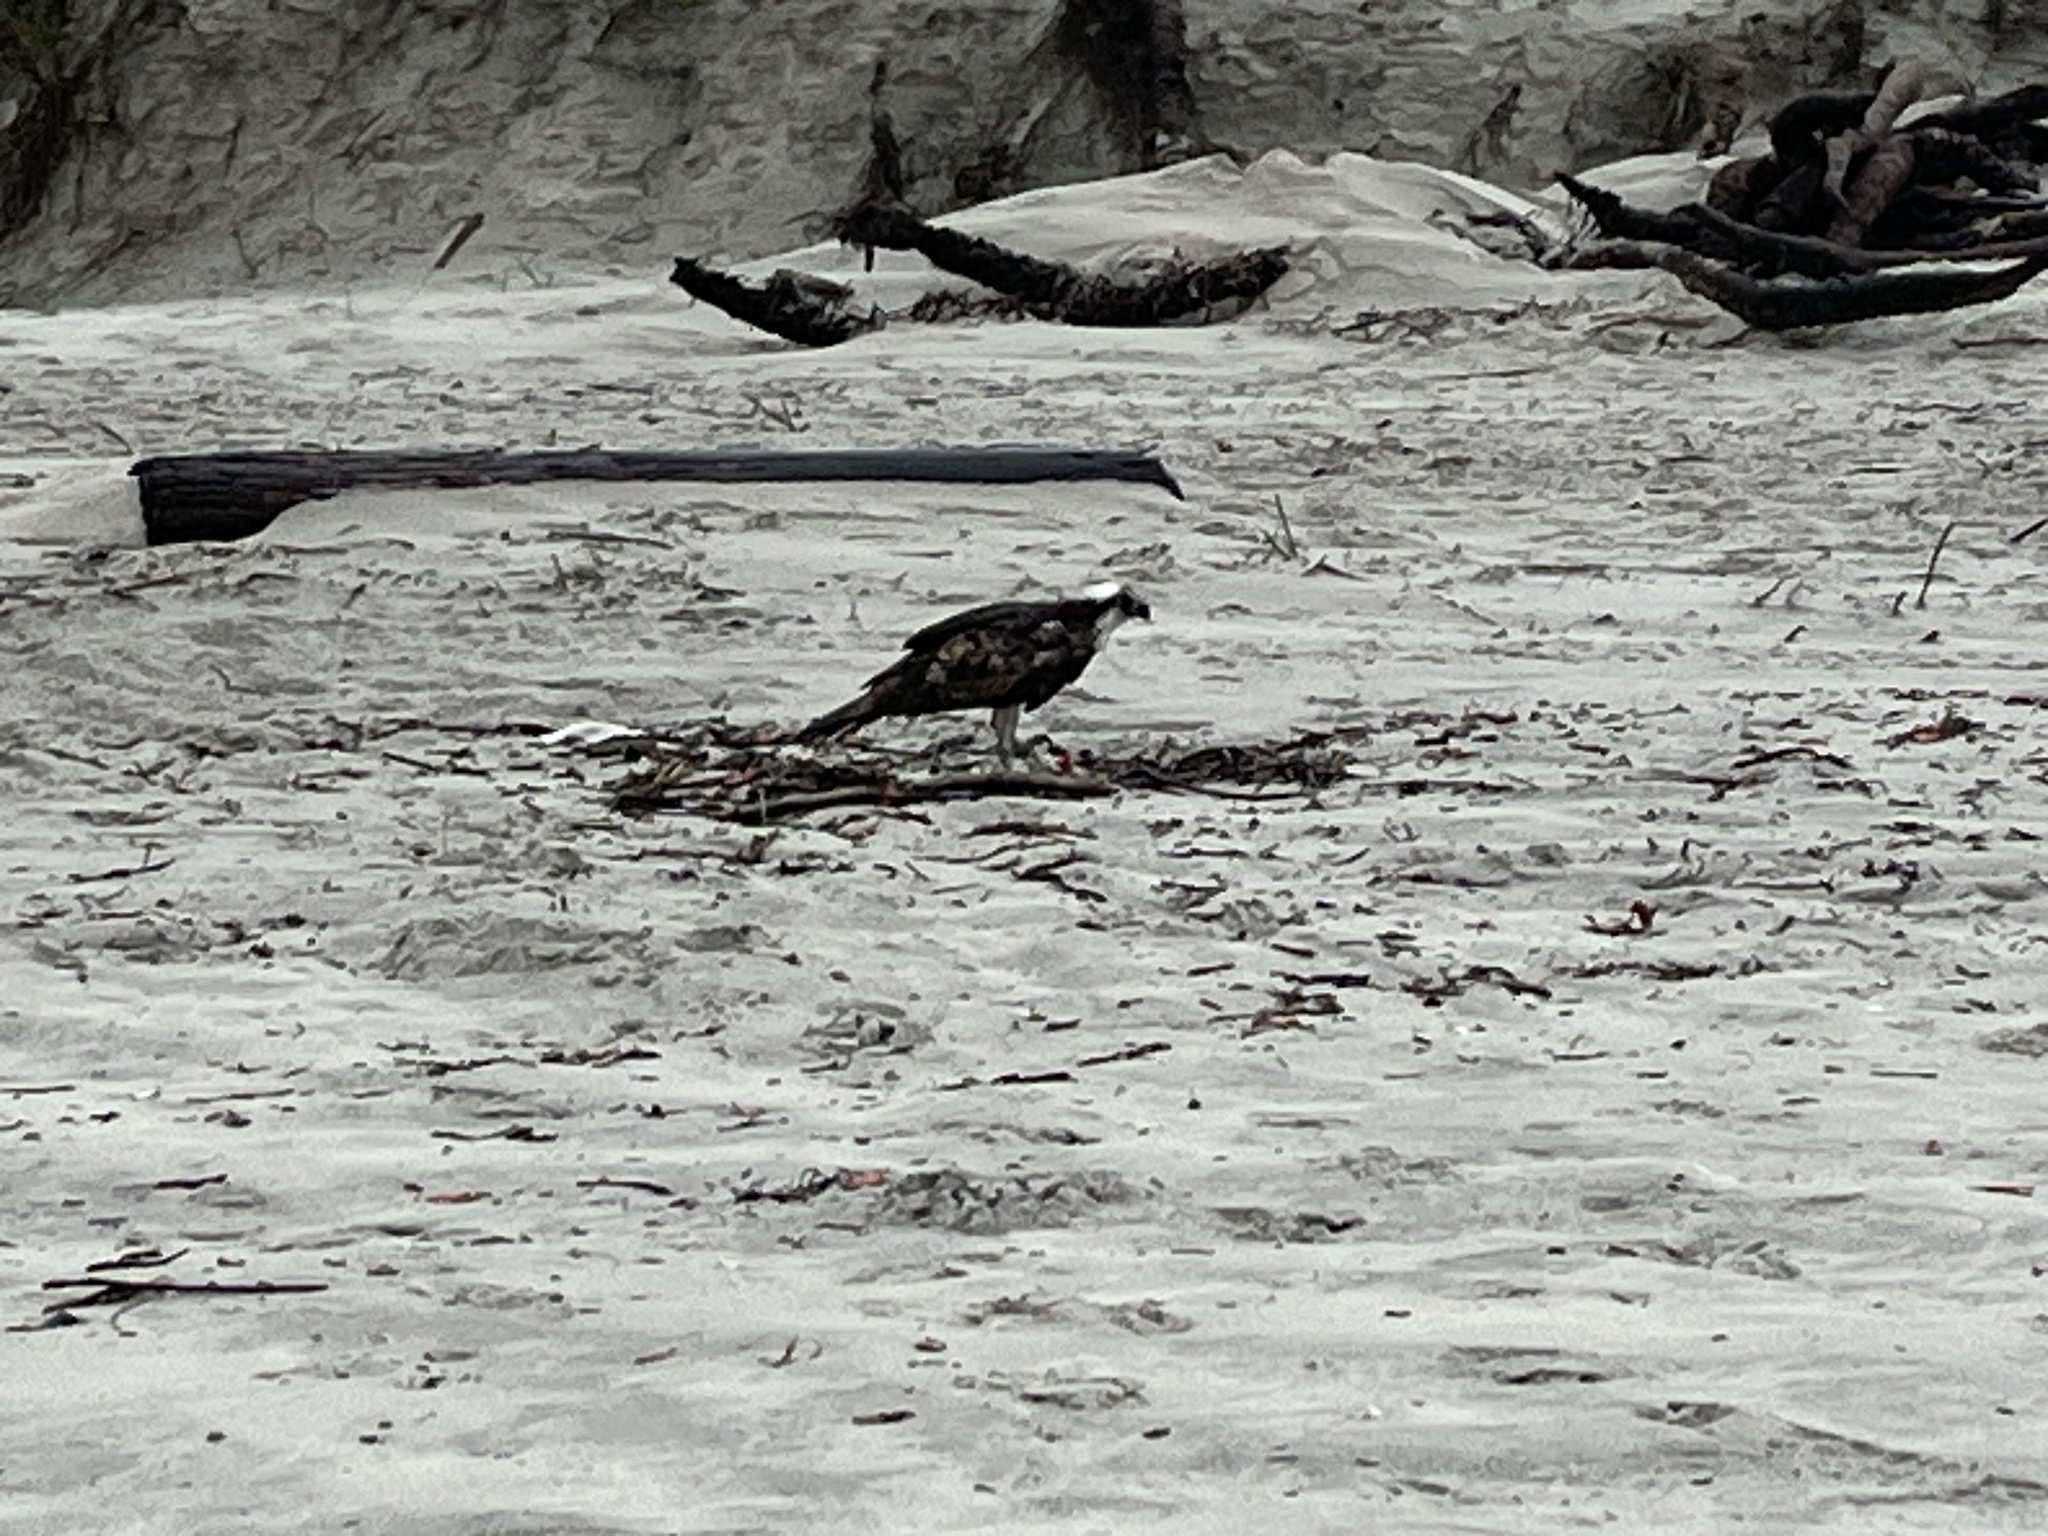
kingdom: Animalia
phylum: Chordata
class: Aves
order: Accipitriformes
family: Pandionidae
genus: Pandion
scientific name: Pandion haliaetus
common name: Osprey
